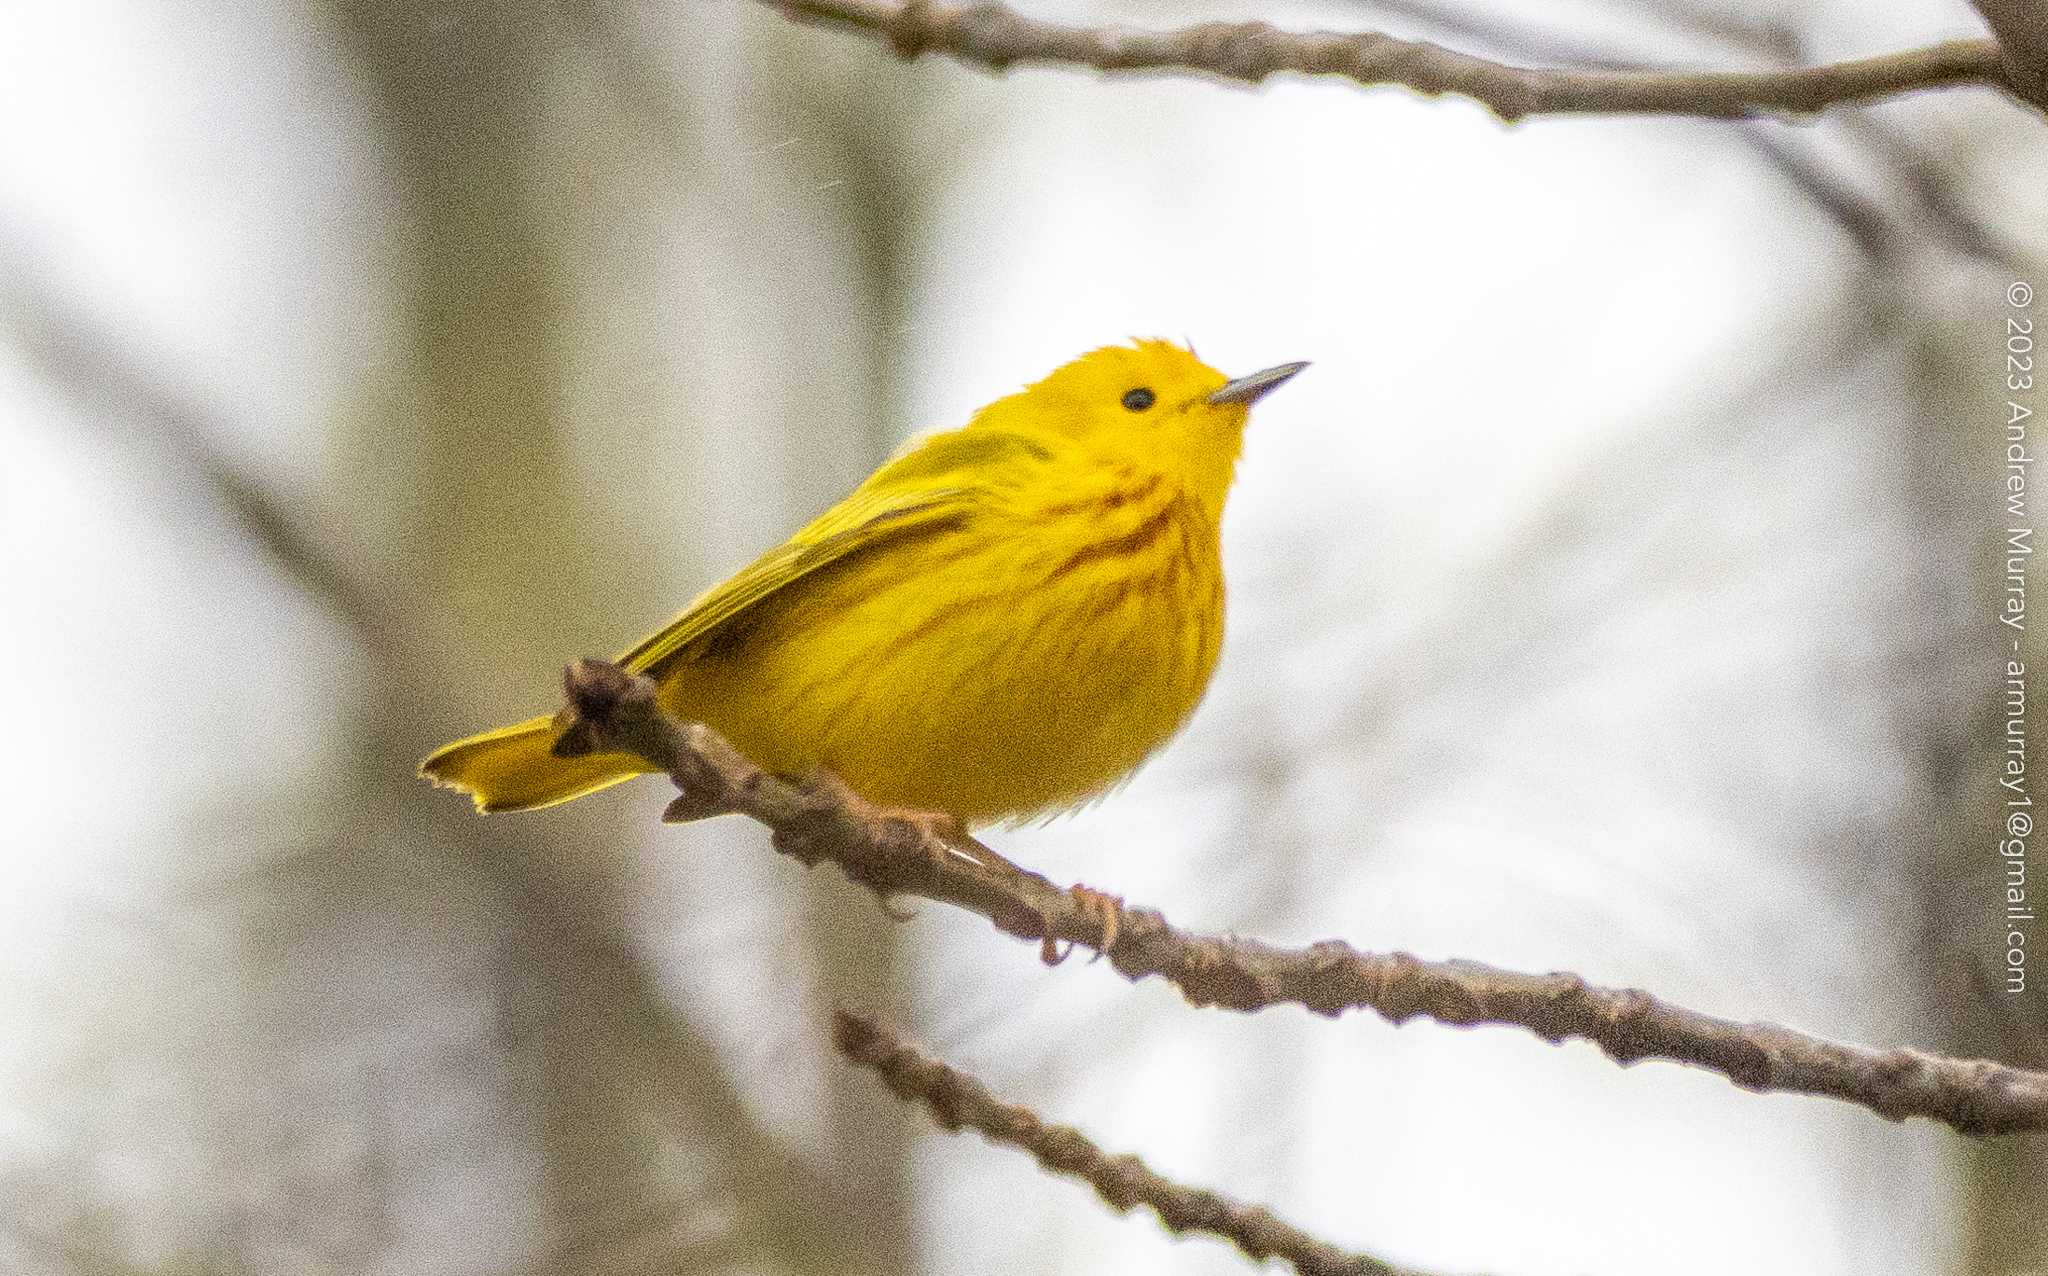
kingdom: Animalia
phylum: Chordata
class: Aves
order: Passeriformes
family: Parulidae
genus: Setophaga
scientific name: Setophaga petechia
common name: Yellow warbler
